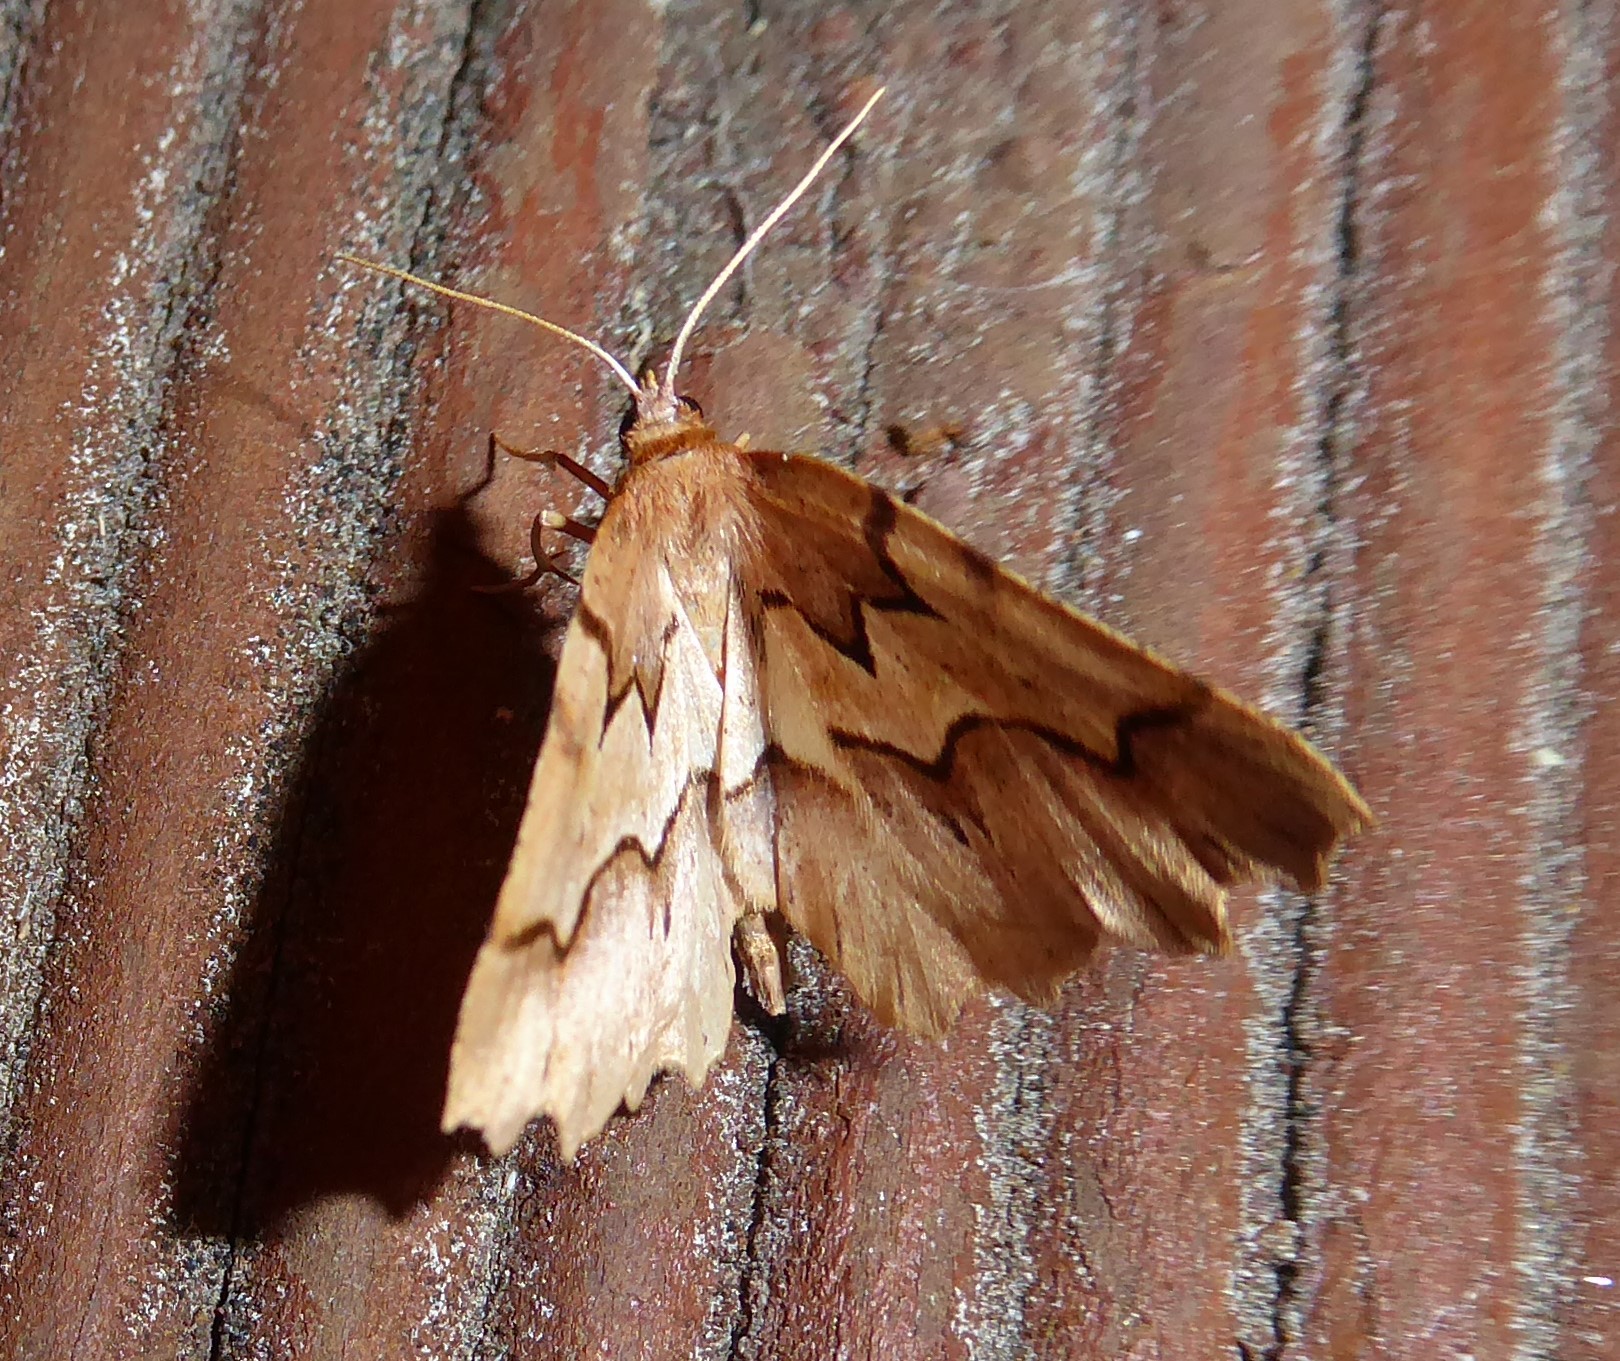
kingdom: Animalia
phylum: Arthropoda
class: Insecta
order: Lepidoptera
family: Geometridae
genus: Ischalis
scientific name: Ischalis fortinata
